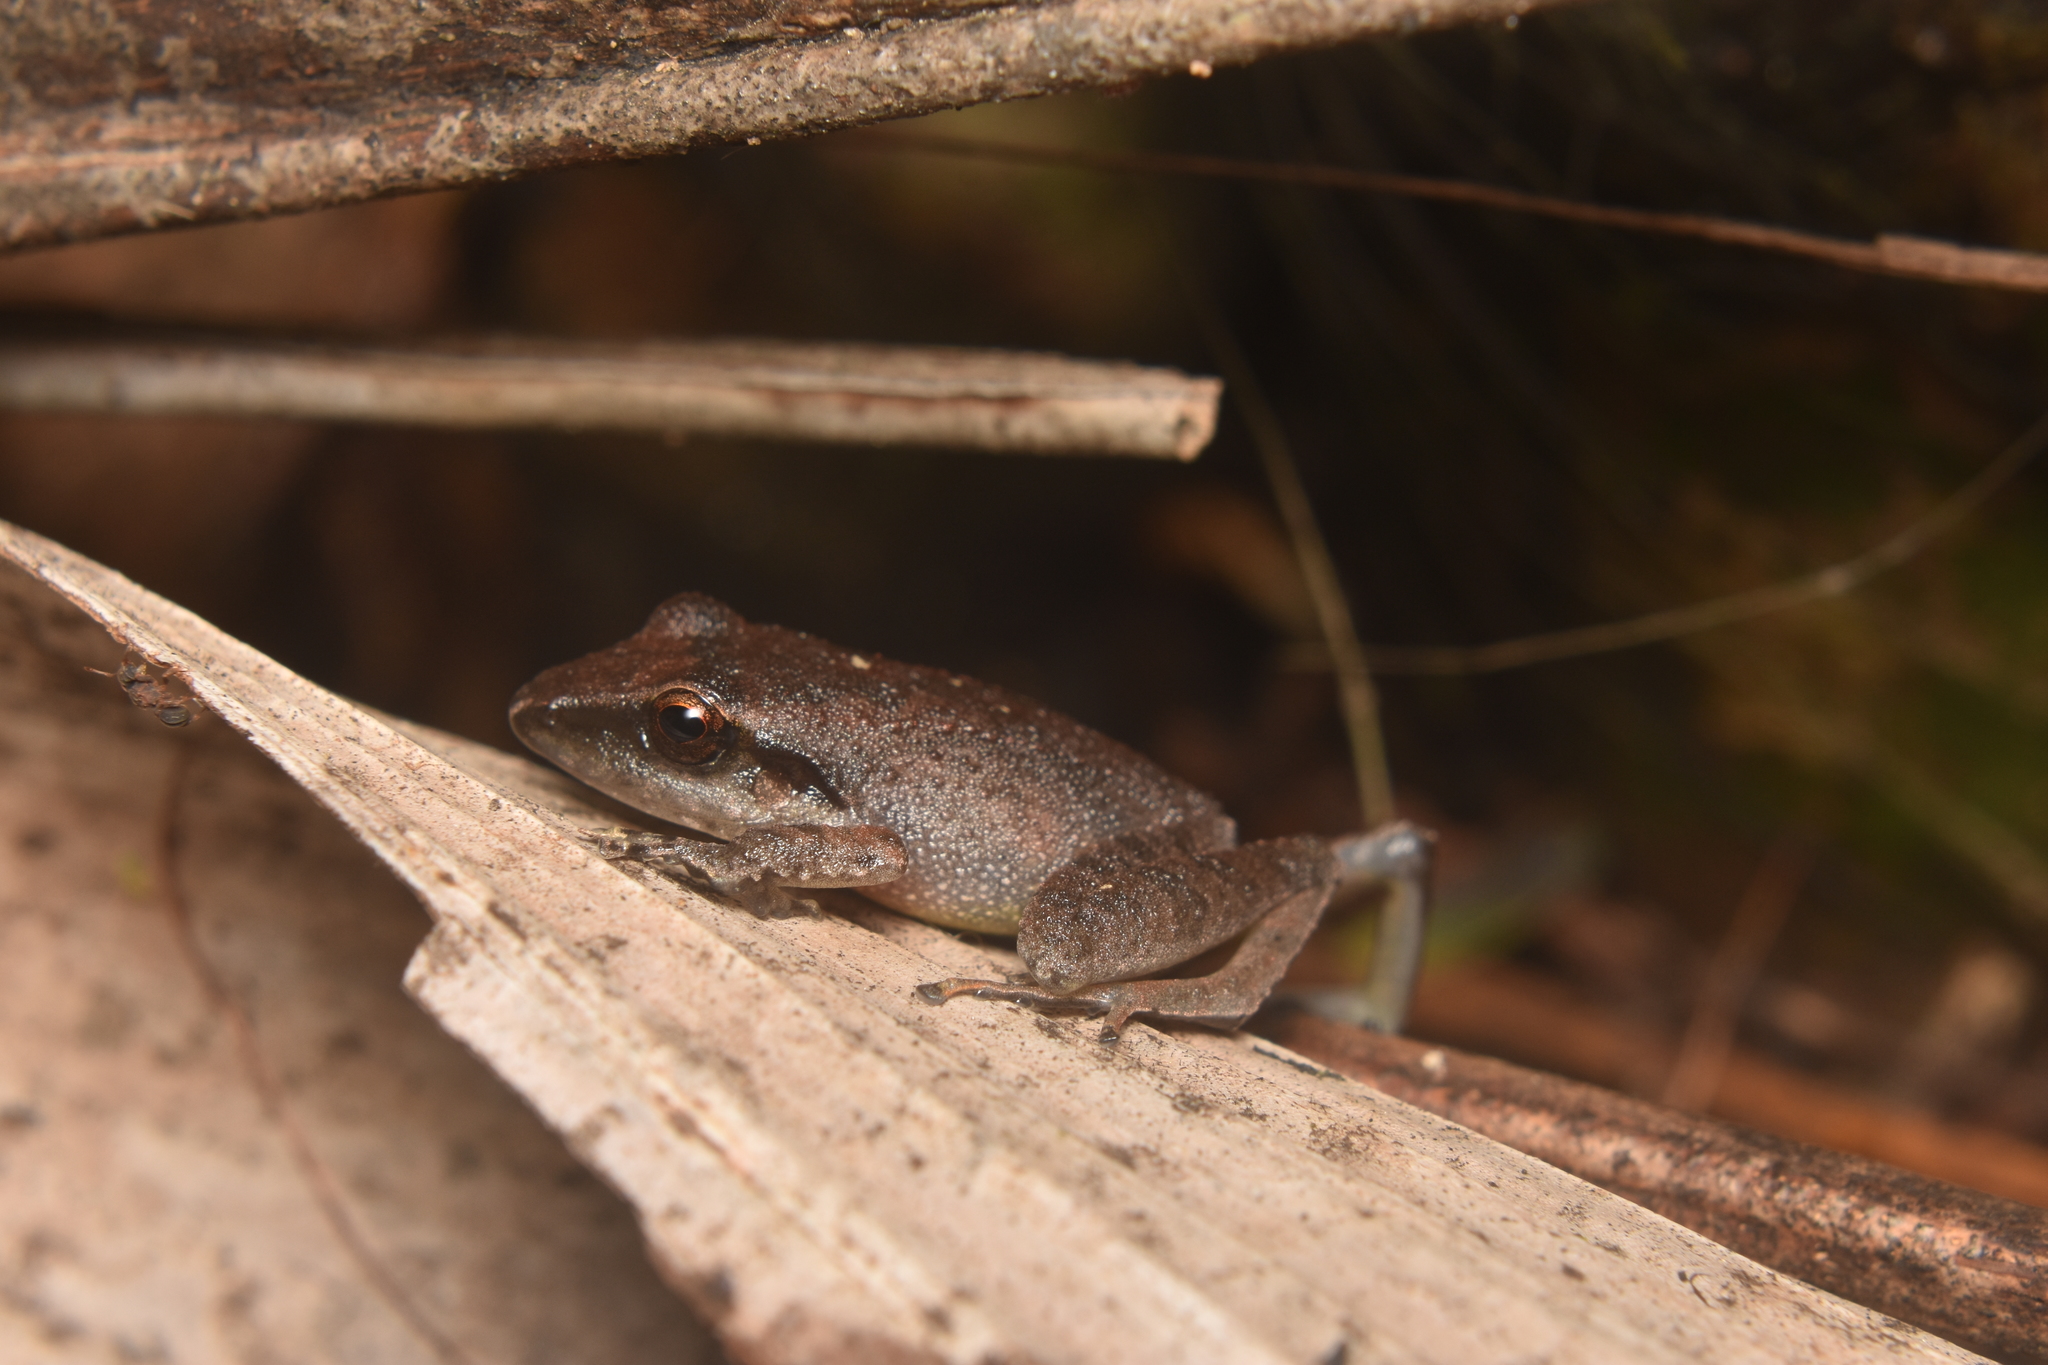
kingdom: Animalia
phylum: Chordata
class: Amphibia
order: Anura
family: Craugastoridae
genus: Pristimantis
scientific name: Pristimantis achatinus
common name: Cachabi robber frog
